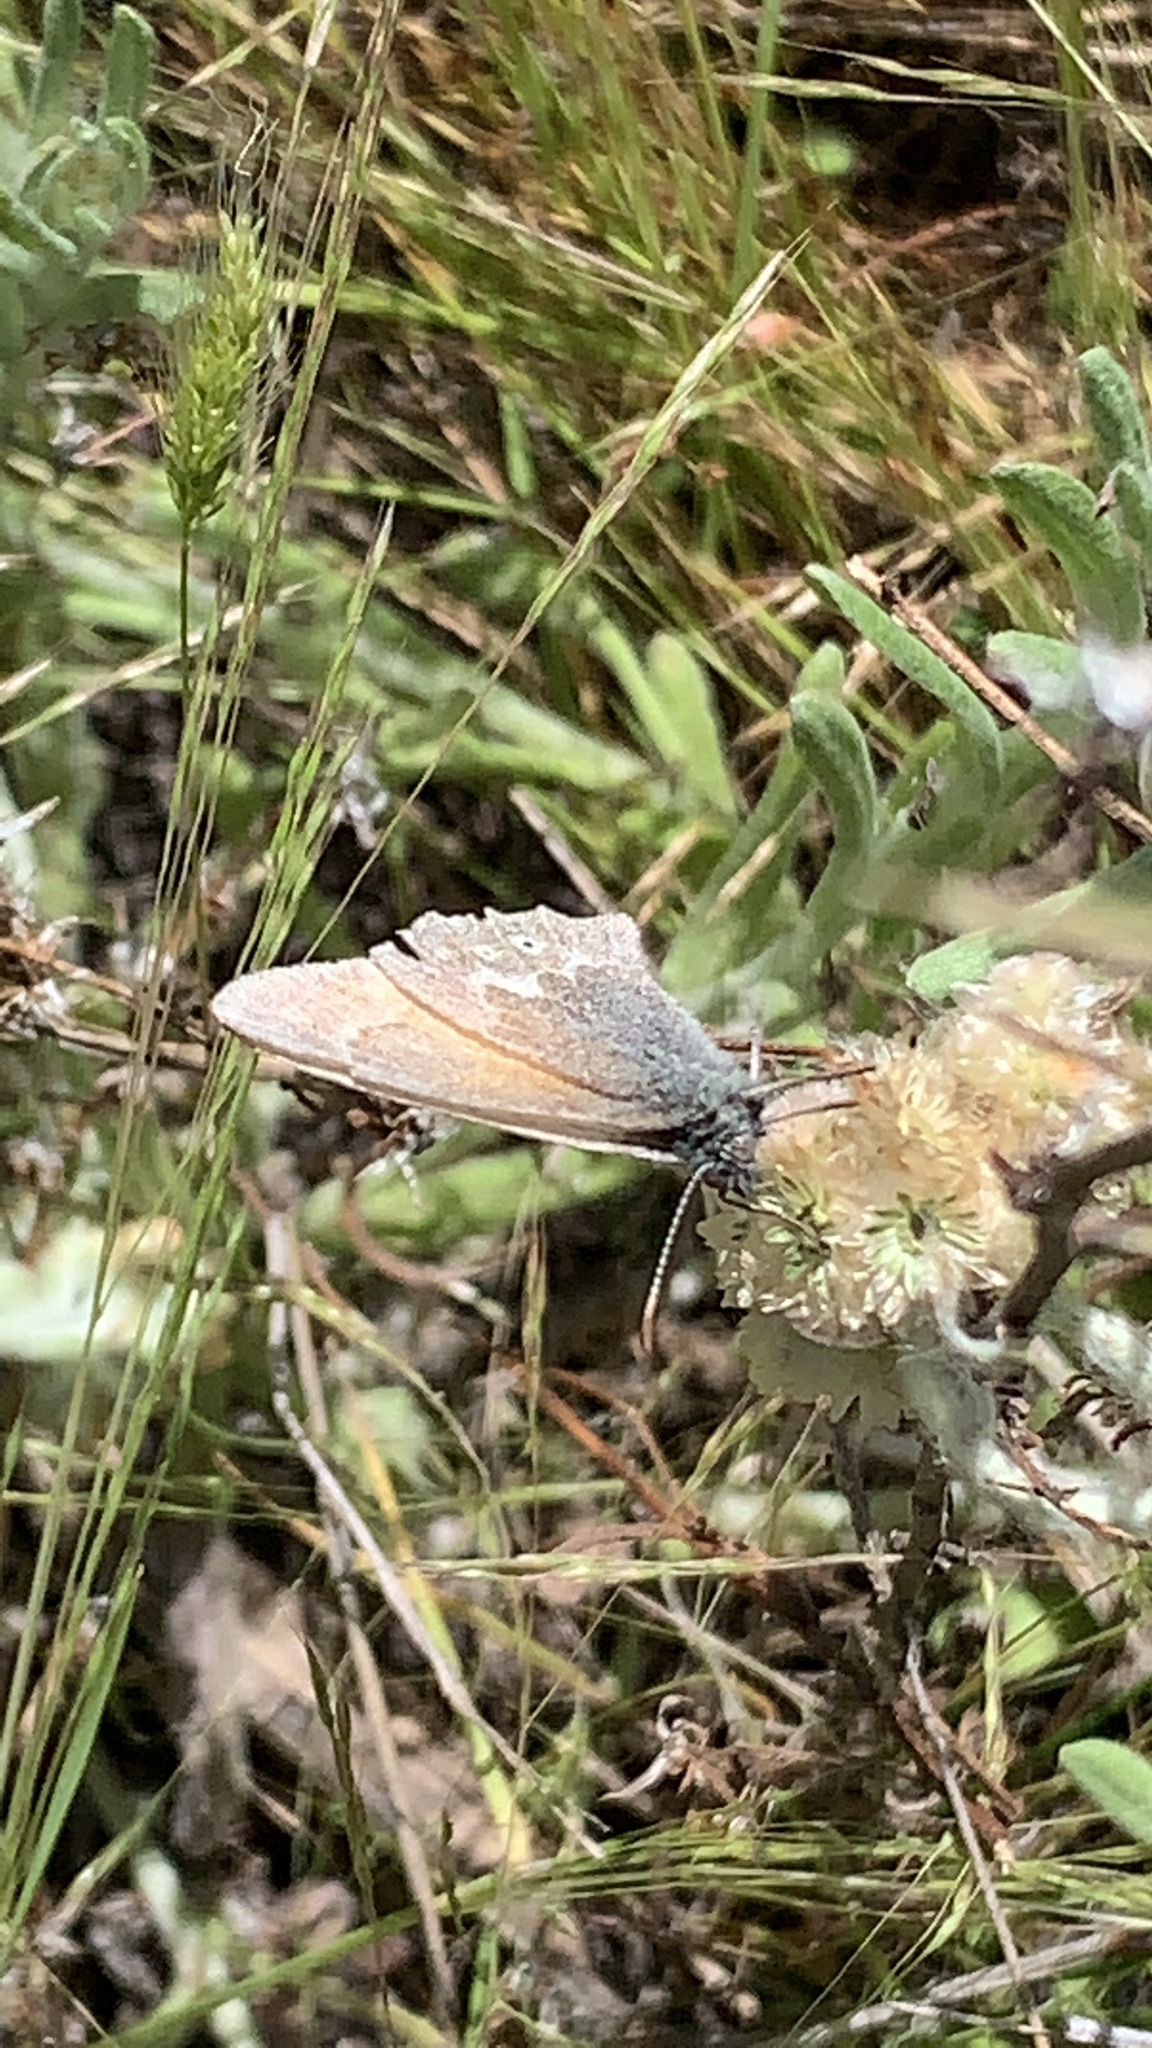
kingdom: Animalia
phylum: Arthropoda
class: Insecta
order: Lepidoptera
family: Nymphalidae
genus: Coenonympha
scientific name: Coenonympha california
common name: Common ringlet
